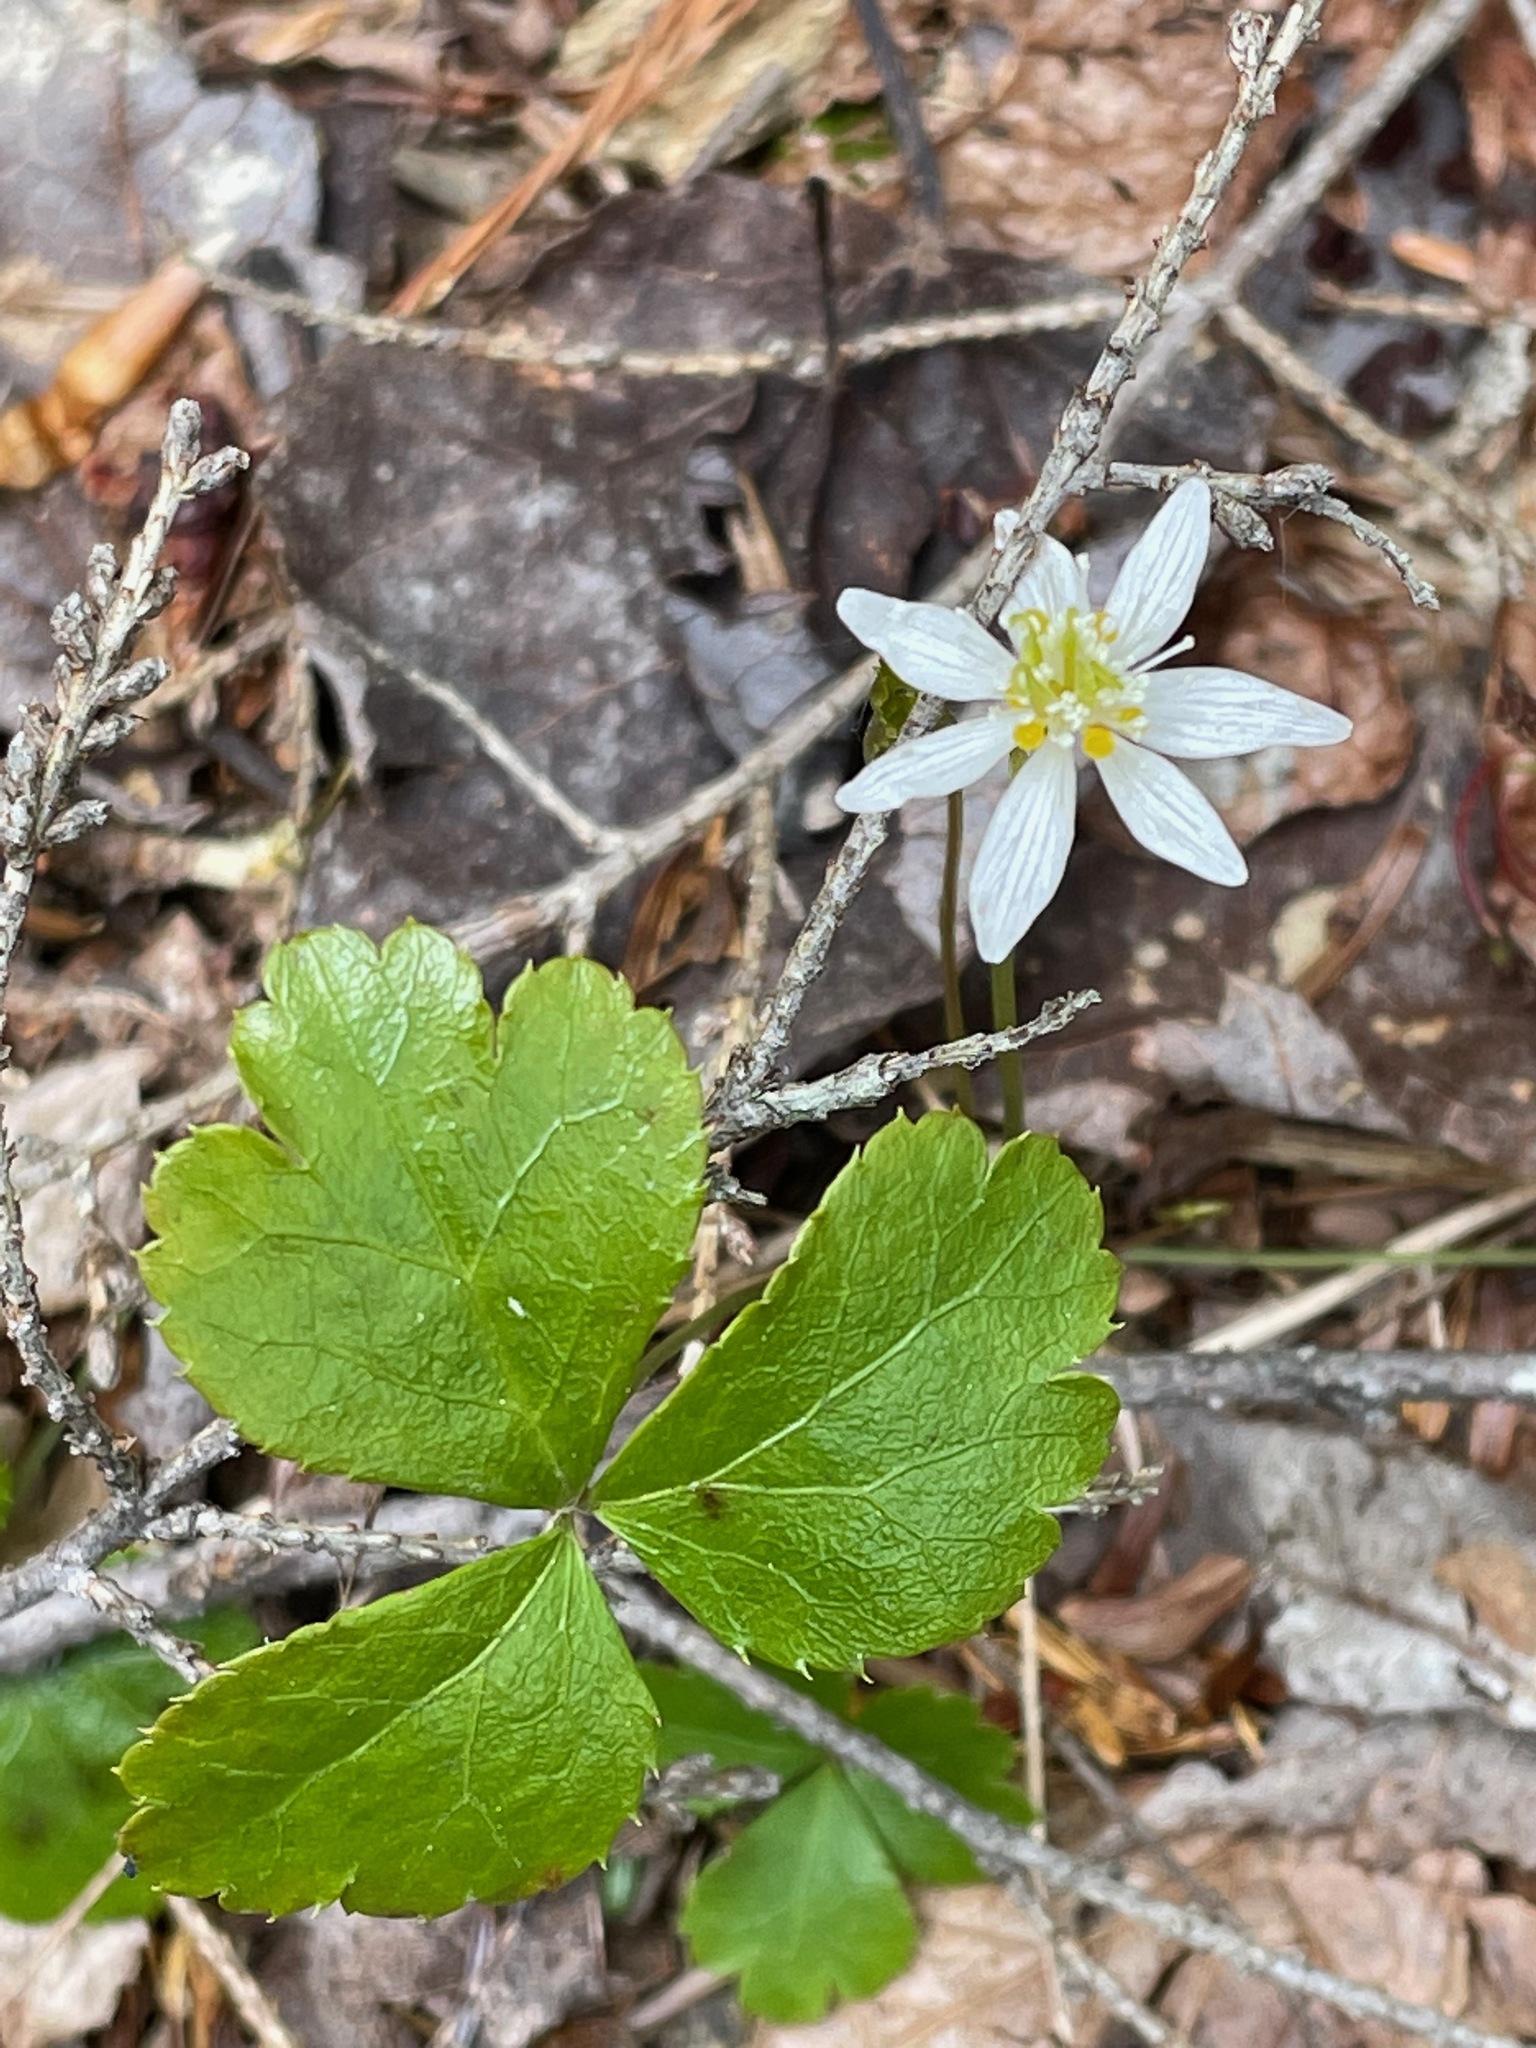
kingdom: Plantae
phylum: Tracheophyta
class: Magnoliopsida
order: Ranunculales
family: Ranunculaceae
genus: Coptis
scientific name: Coptis trifolia
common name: Canker-root
